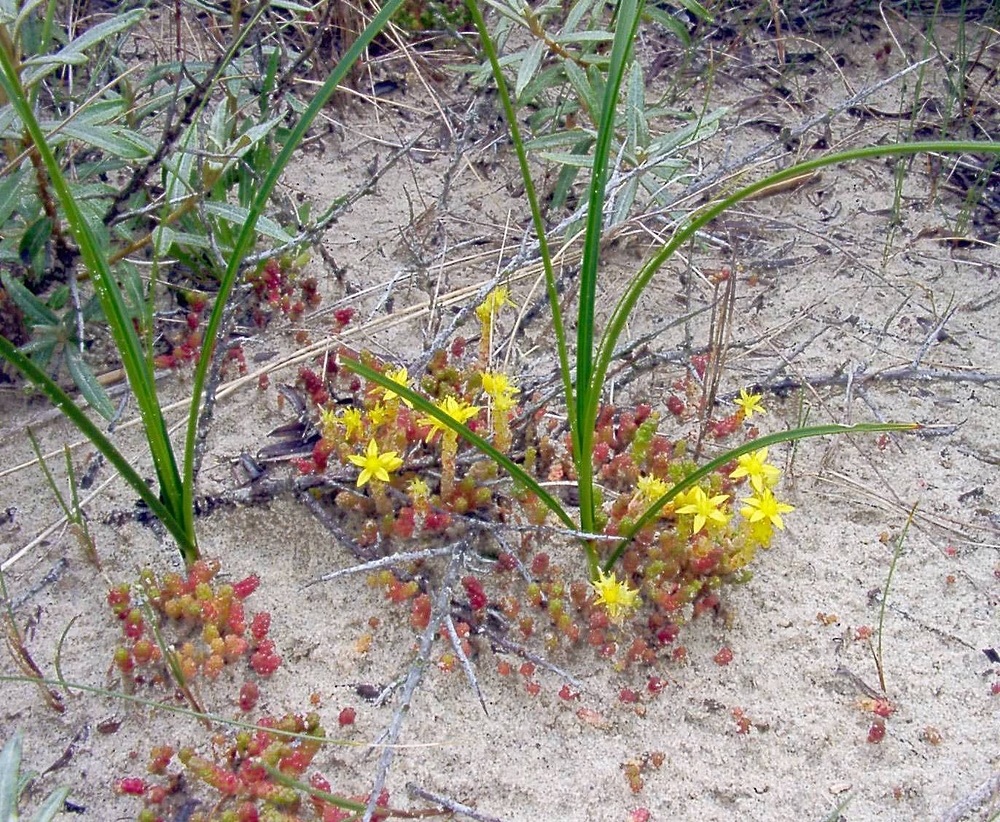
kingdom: Plantae
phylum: Tracheophyta
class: Magnoliopsida
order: Saxifragales
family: Crassulaceae
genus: Sedum
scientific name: Sedum acre
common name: Biting stonecrop
